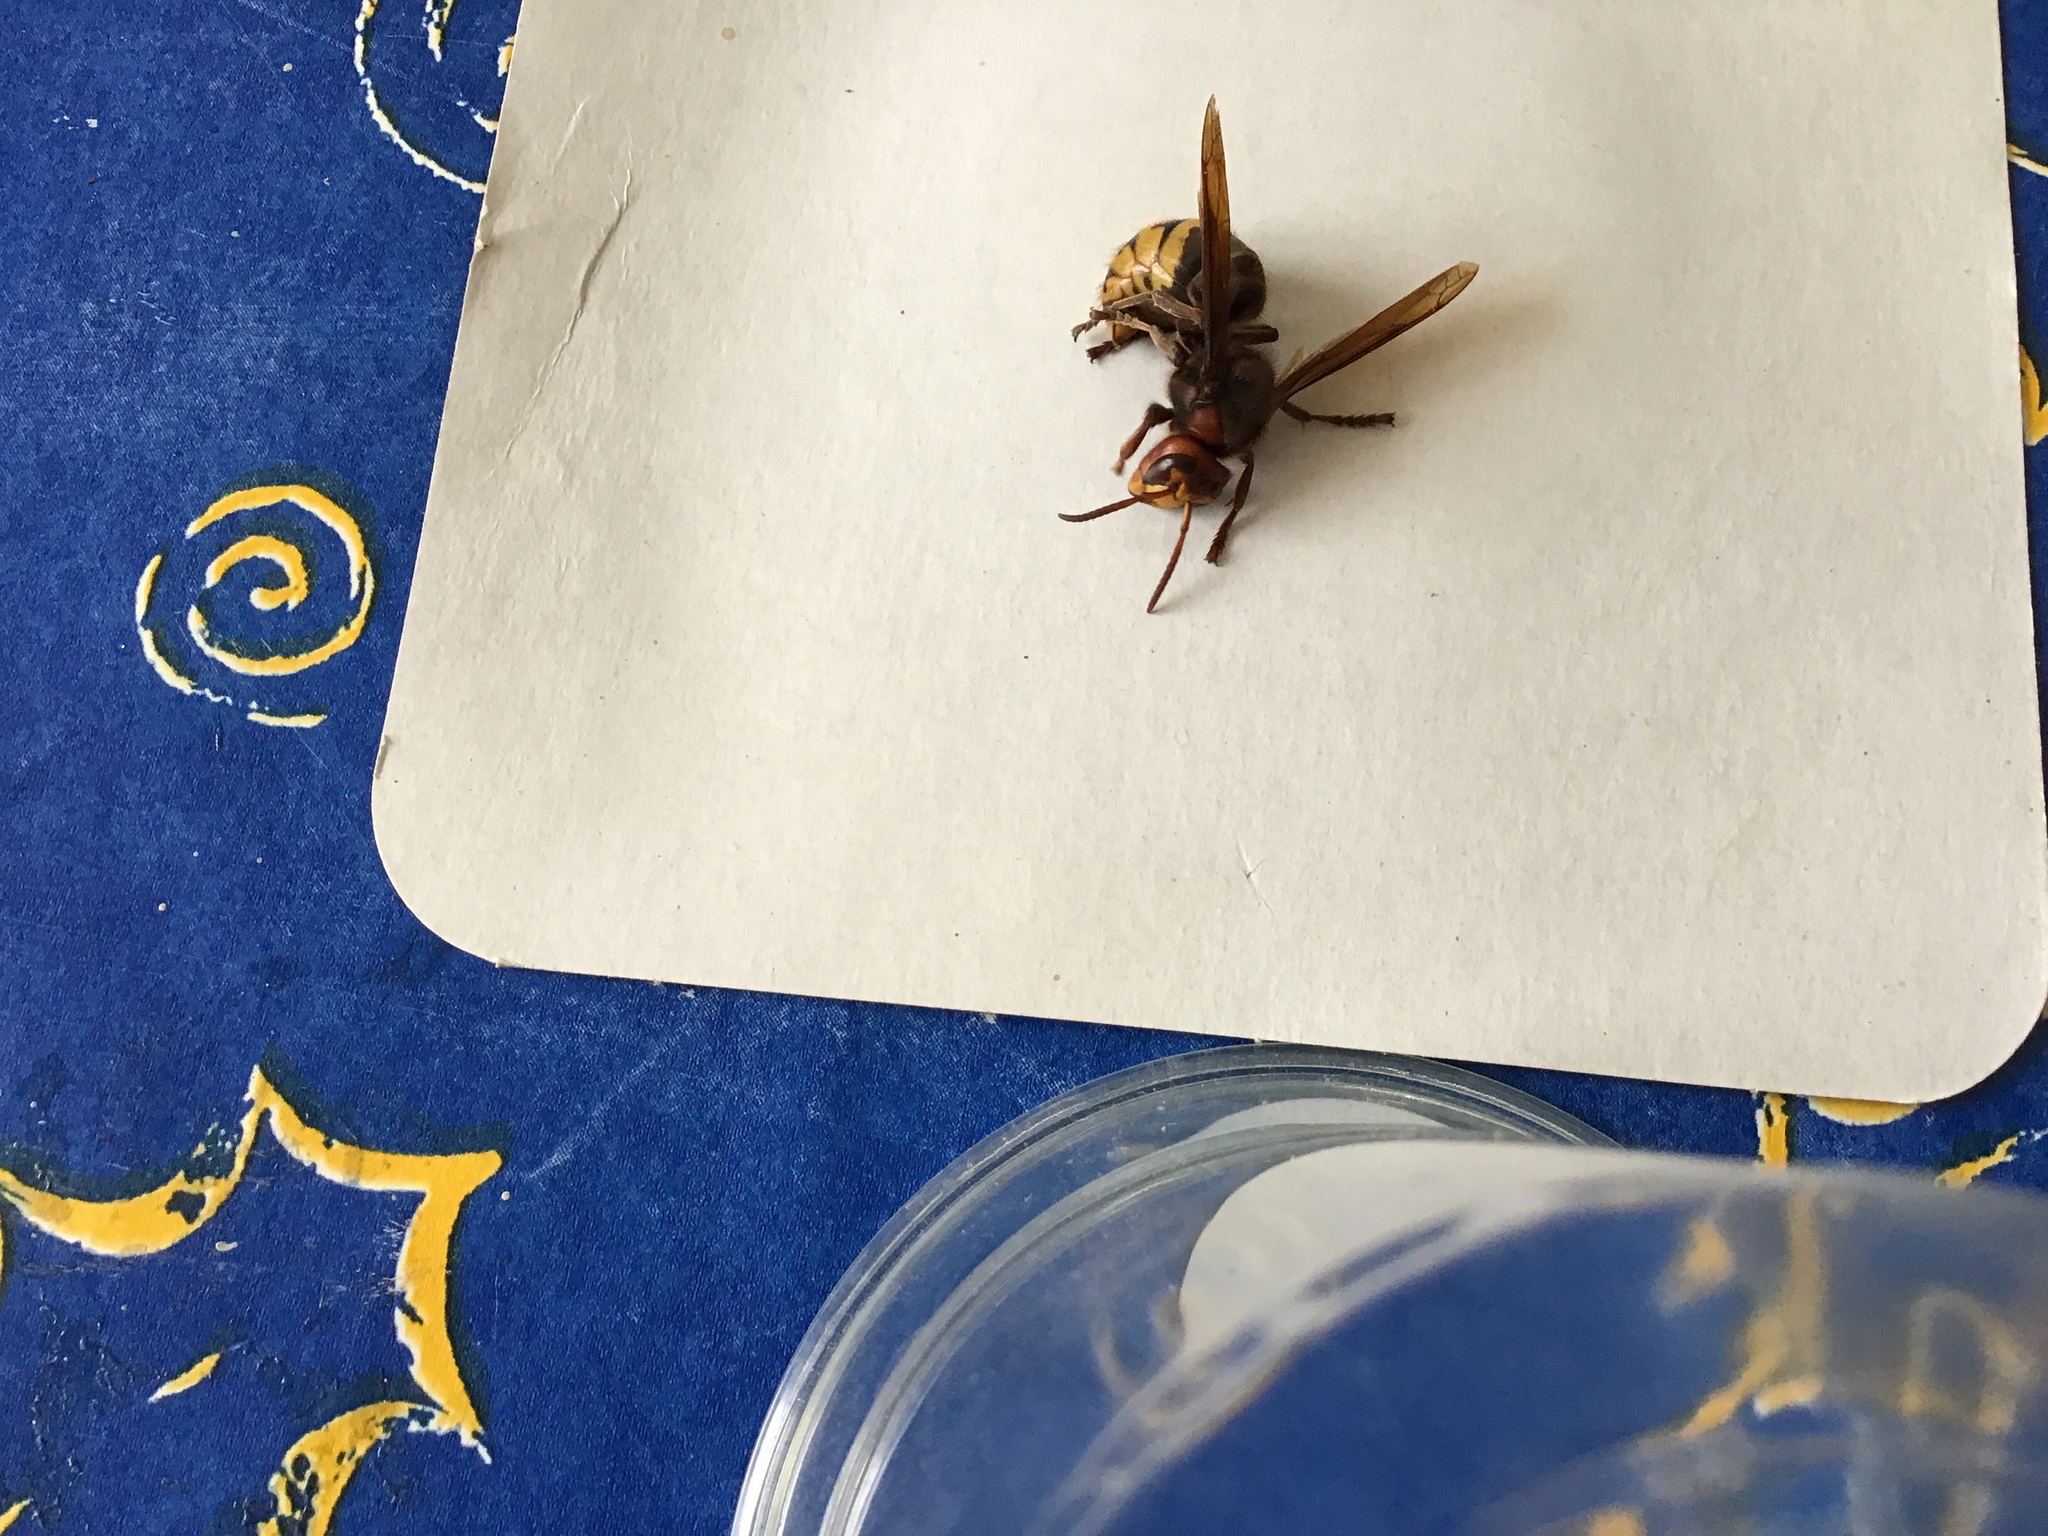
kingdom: Animalia
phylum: Arthropoda
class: Insecta
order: Hymenoptera
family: Vespidae
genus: Vespa
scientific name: Vespa crabro
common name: Hornet
